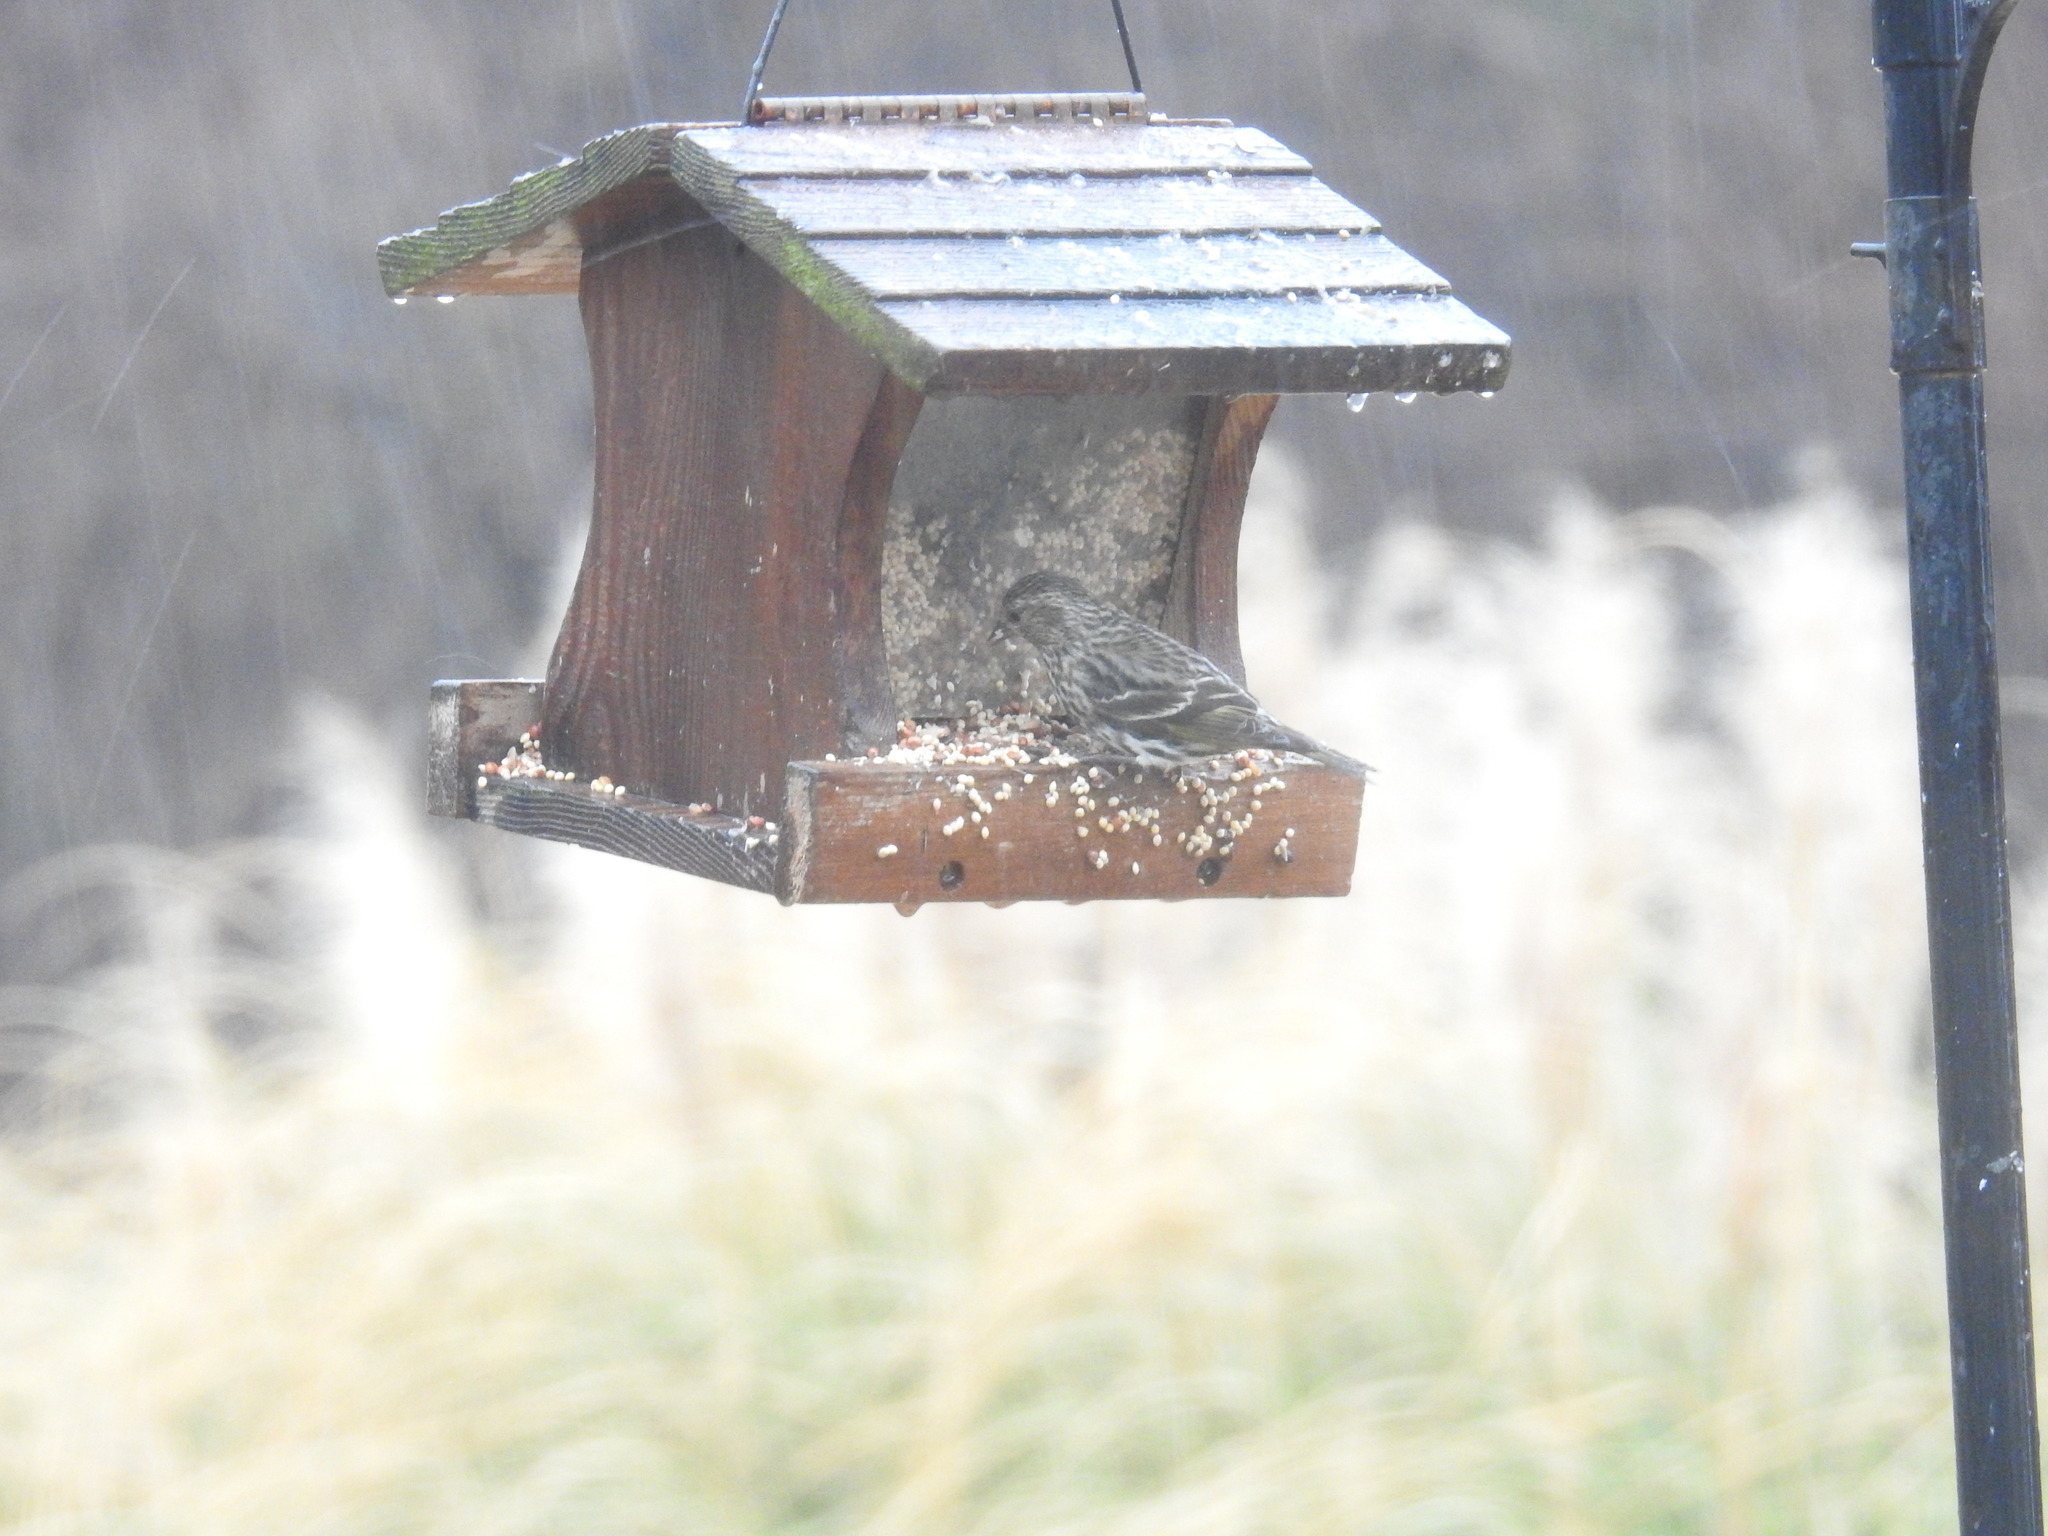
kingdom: Animalia
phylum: Chordata
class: Aves
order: Passeriformes
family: Fringillidae
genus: Spinus
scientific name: Spinus pinus
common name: Pine siskin
